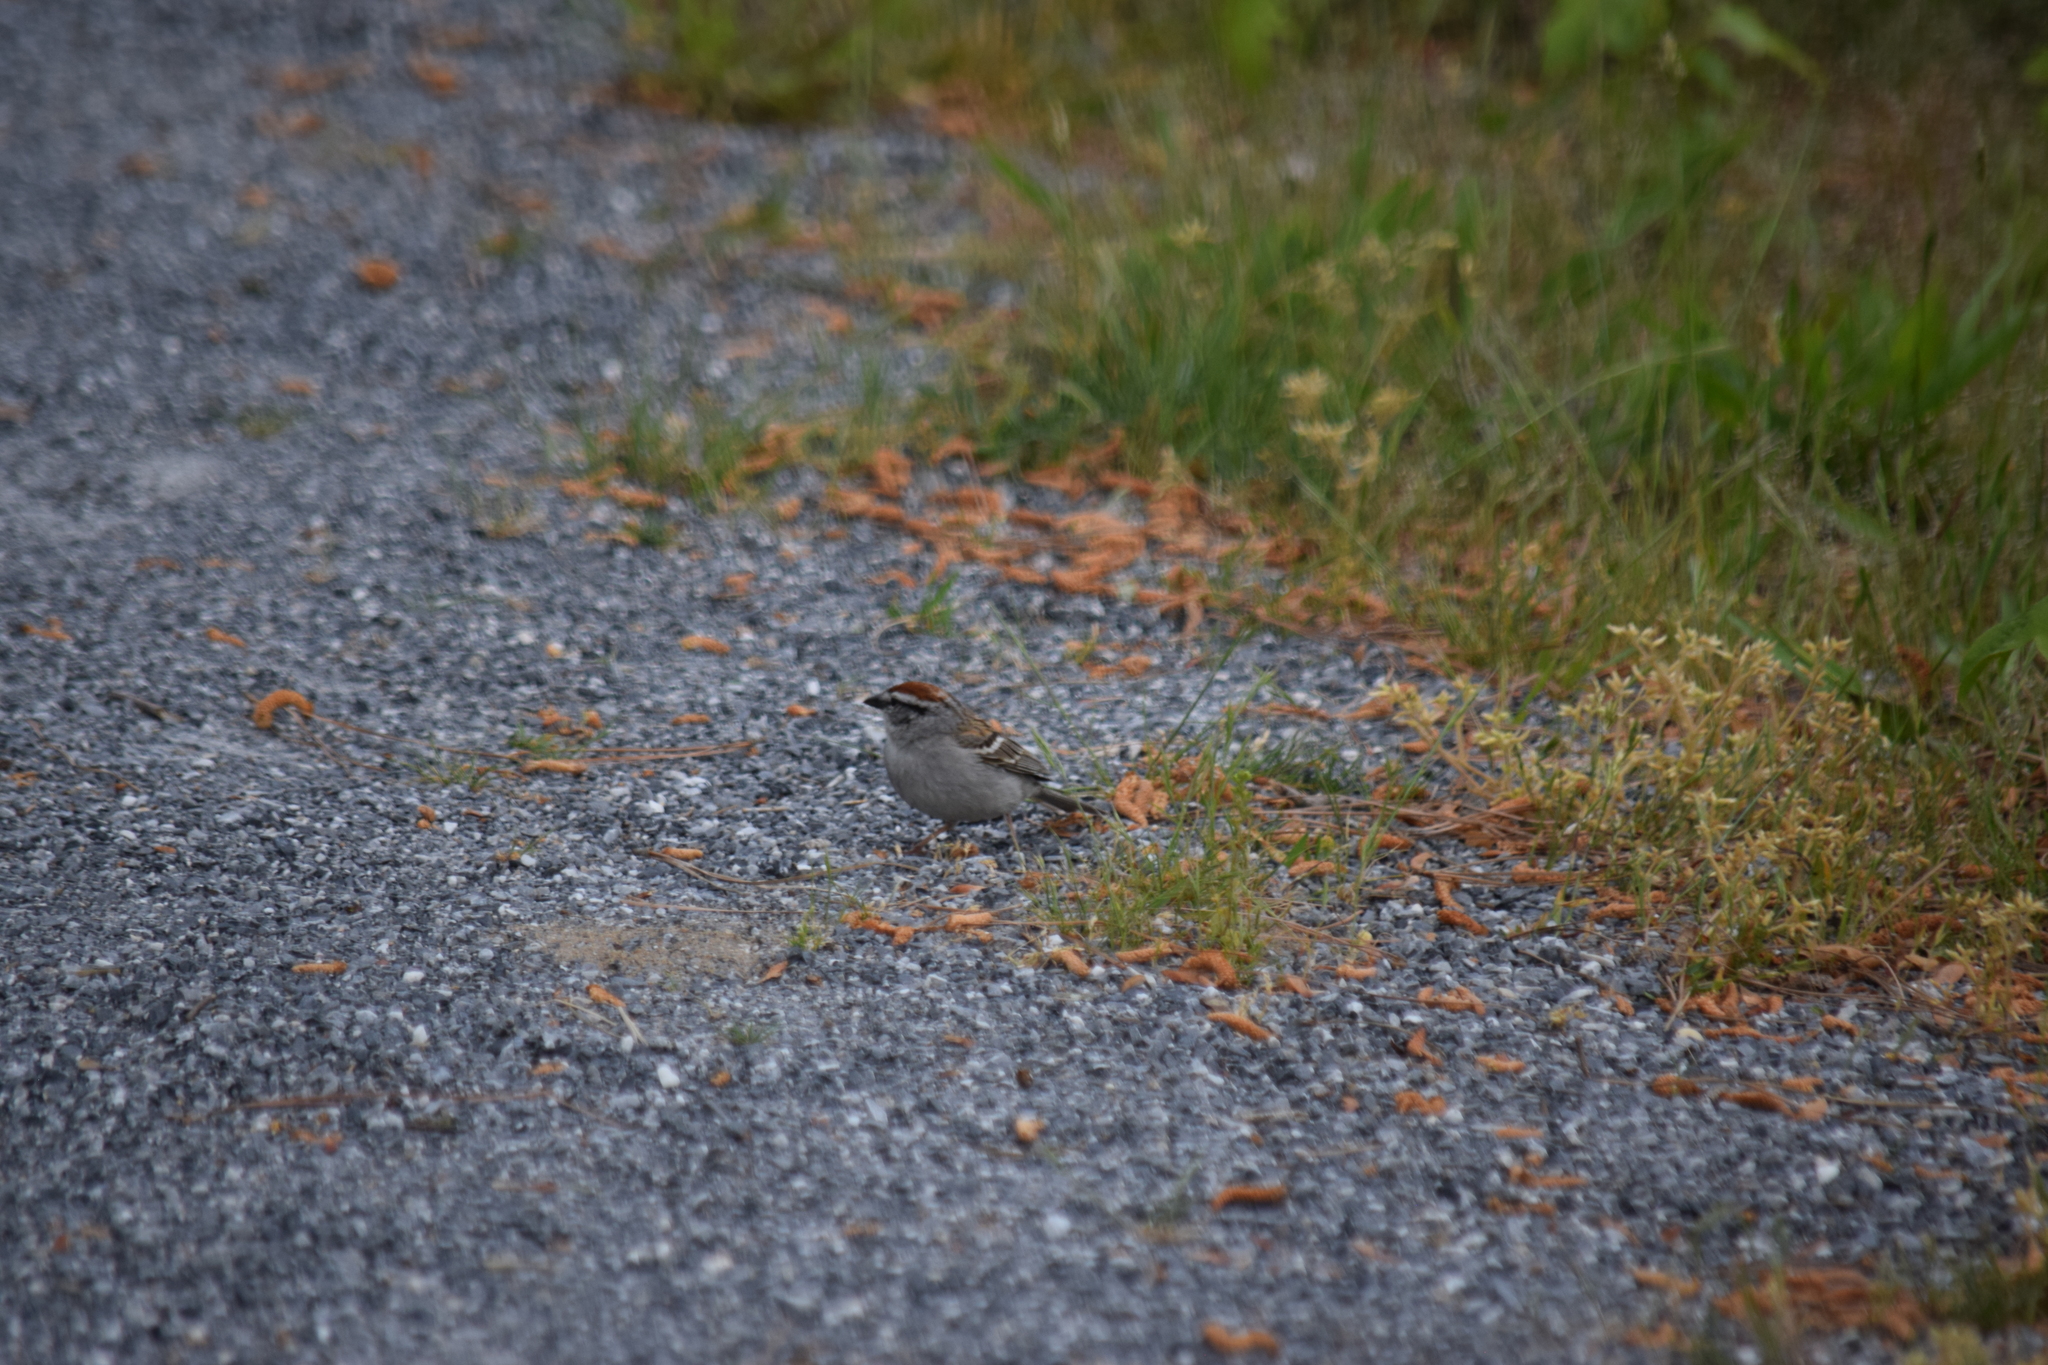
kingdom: Animalia
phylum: Chordata
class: Aves
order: Passeriformes
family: Passerellidae
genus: Spizella
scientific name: Spizella passerina
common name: Chipping sparrow
